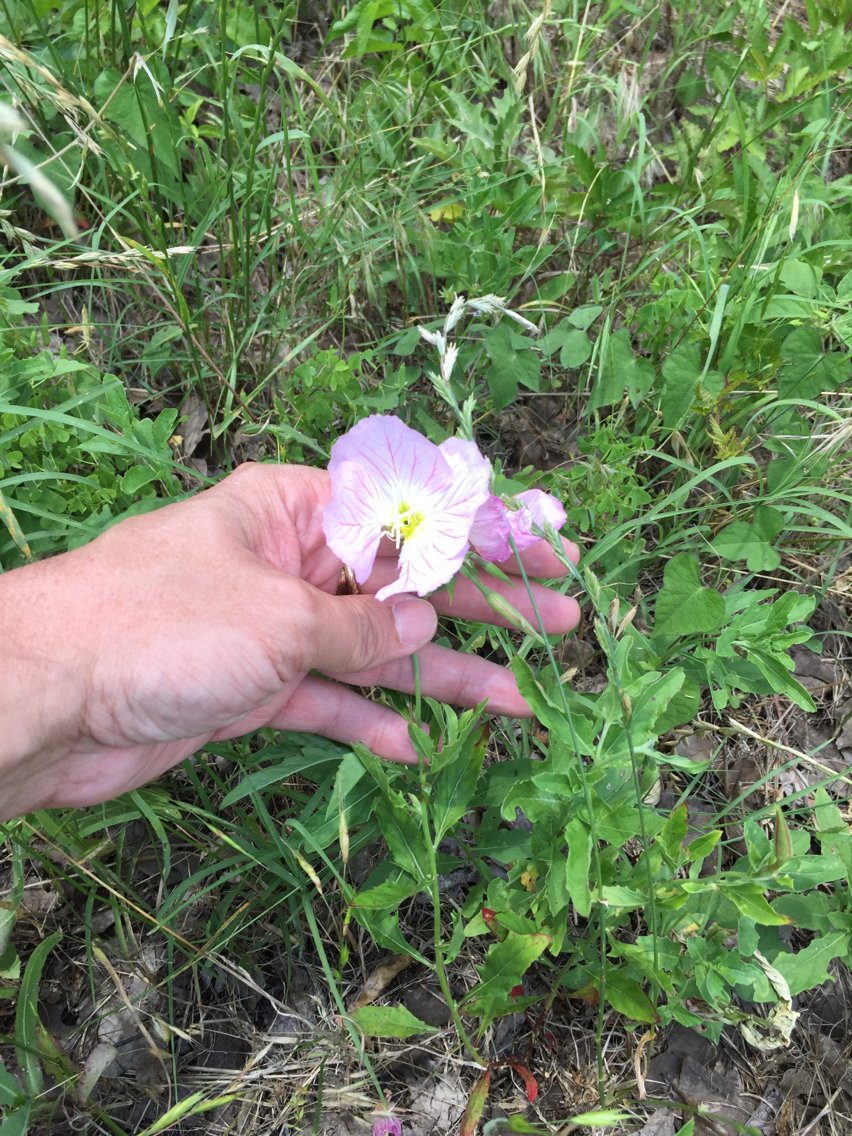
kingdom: Plantae
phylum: Tracheophyta
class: Magnoliopsida
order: Myrtales
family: Onagraceae
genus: Oenothera
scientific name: Oenothera speciosa
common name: White evening-primrose
